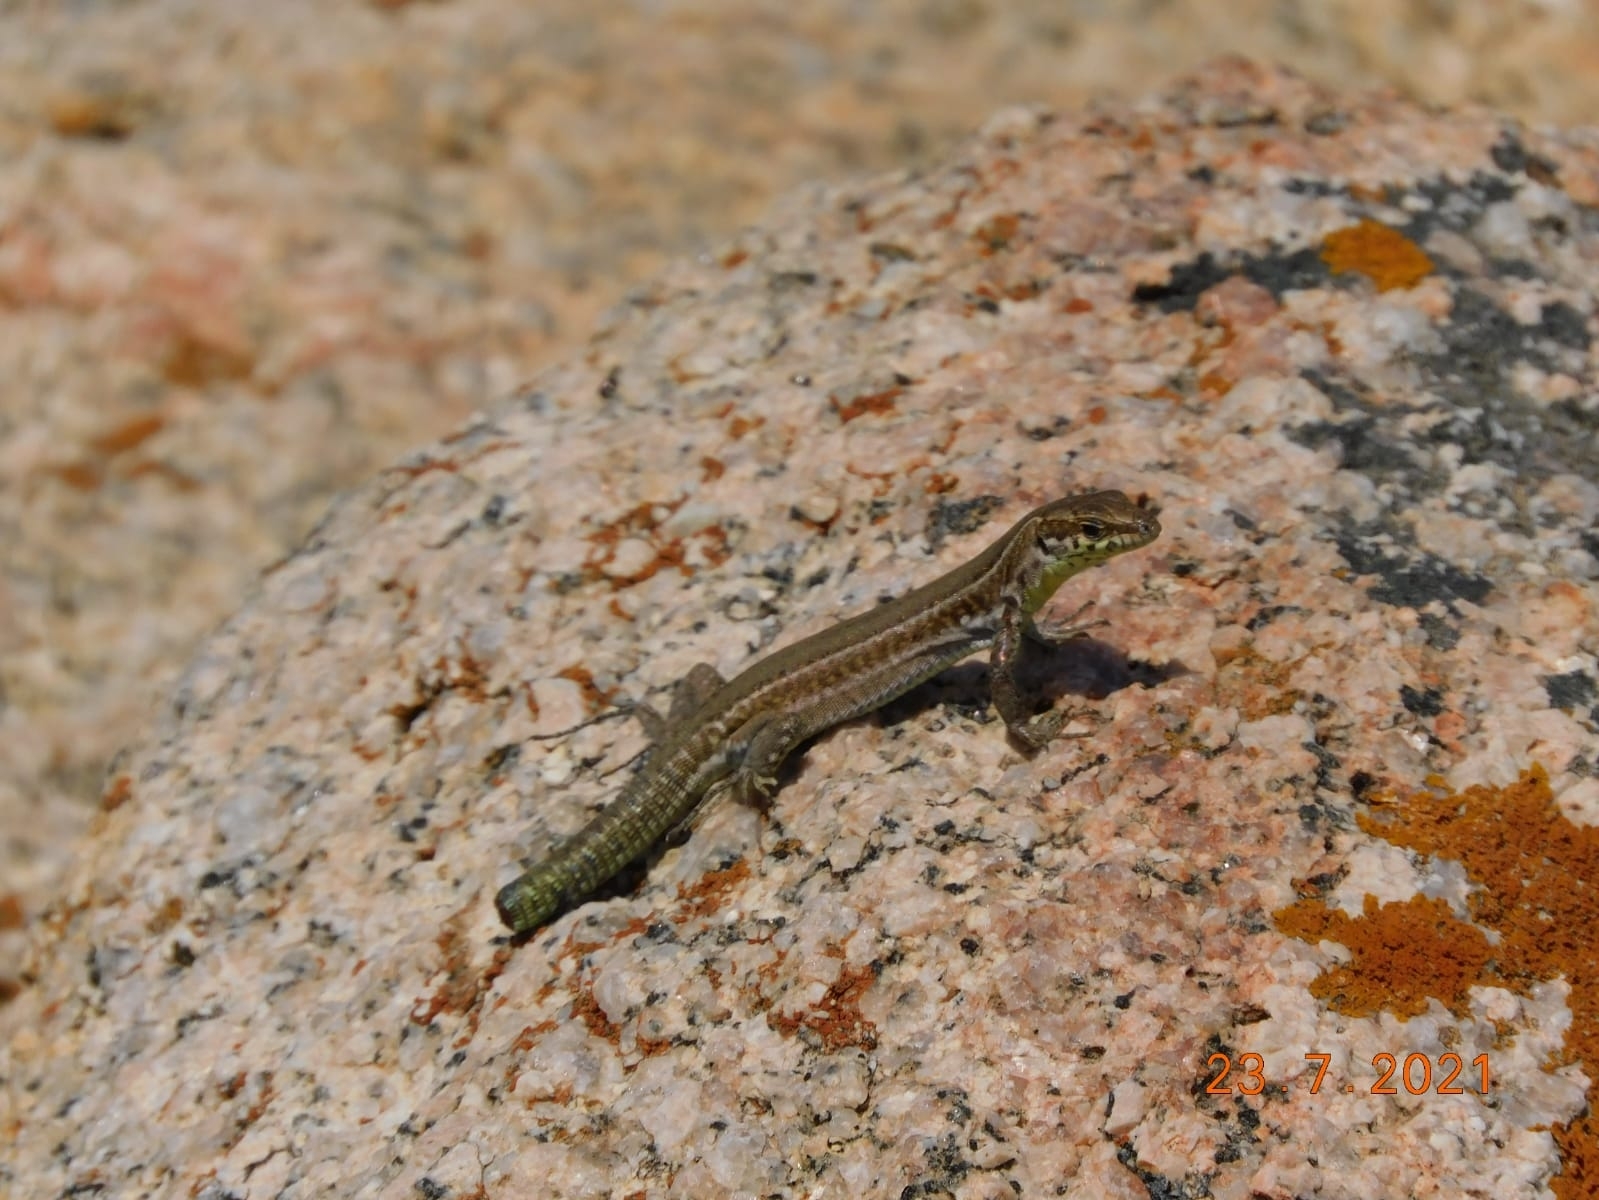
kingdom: Animalia
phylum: Chordata
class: Squamata
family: Lacertidae
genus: Podarcis
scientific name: Podarcis tiliguerta
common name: Tyrrhenian wall lizard
